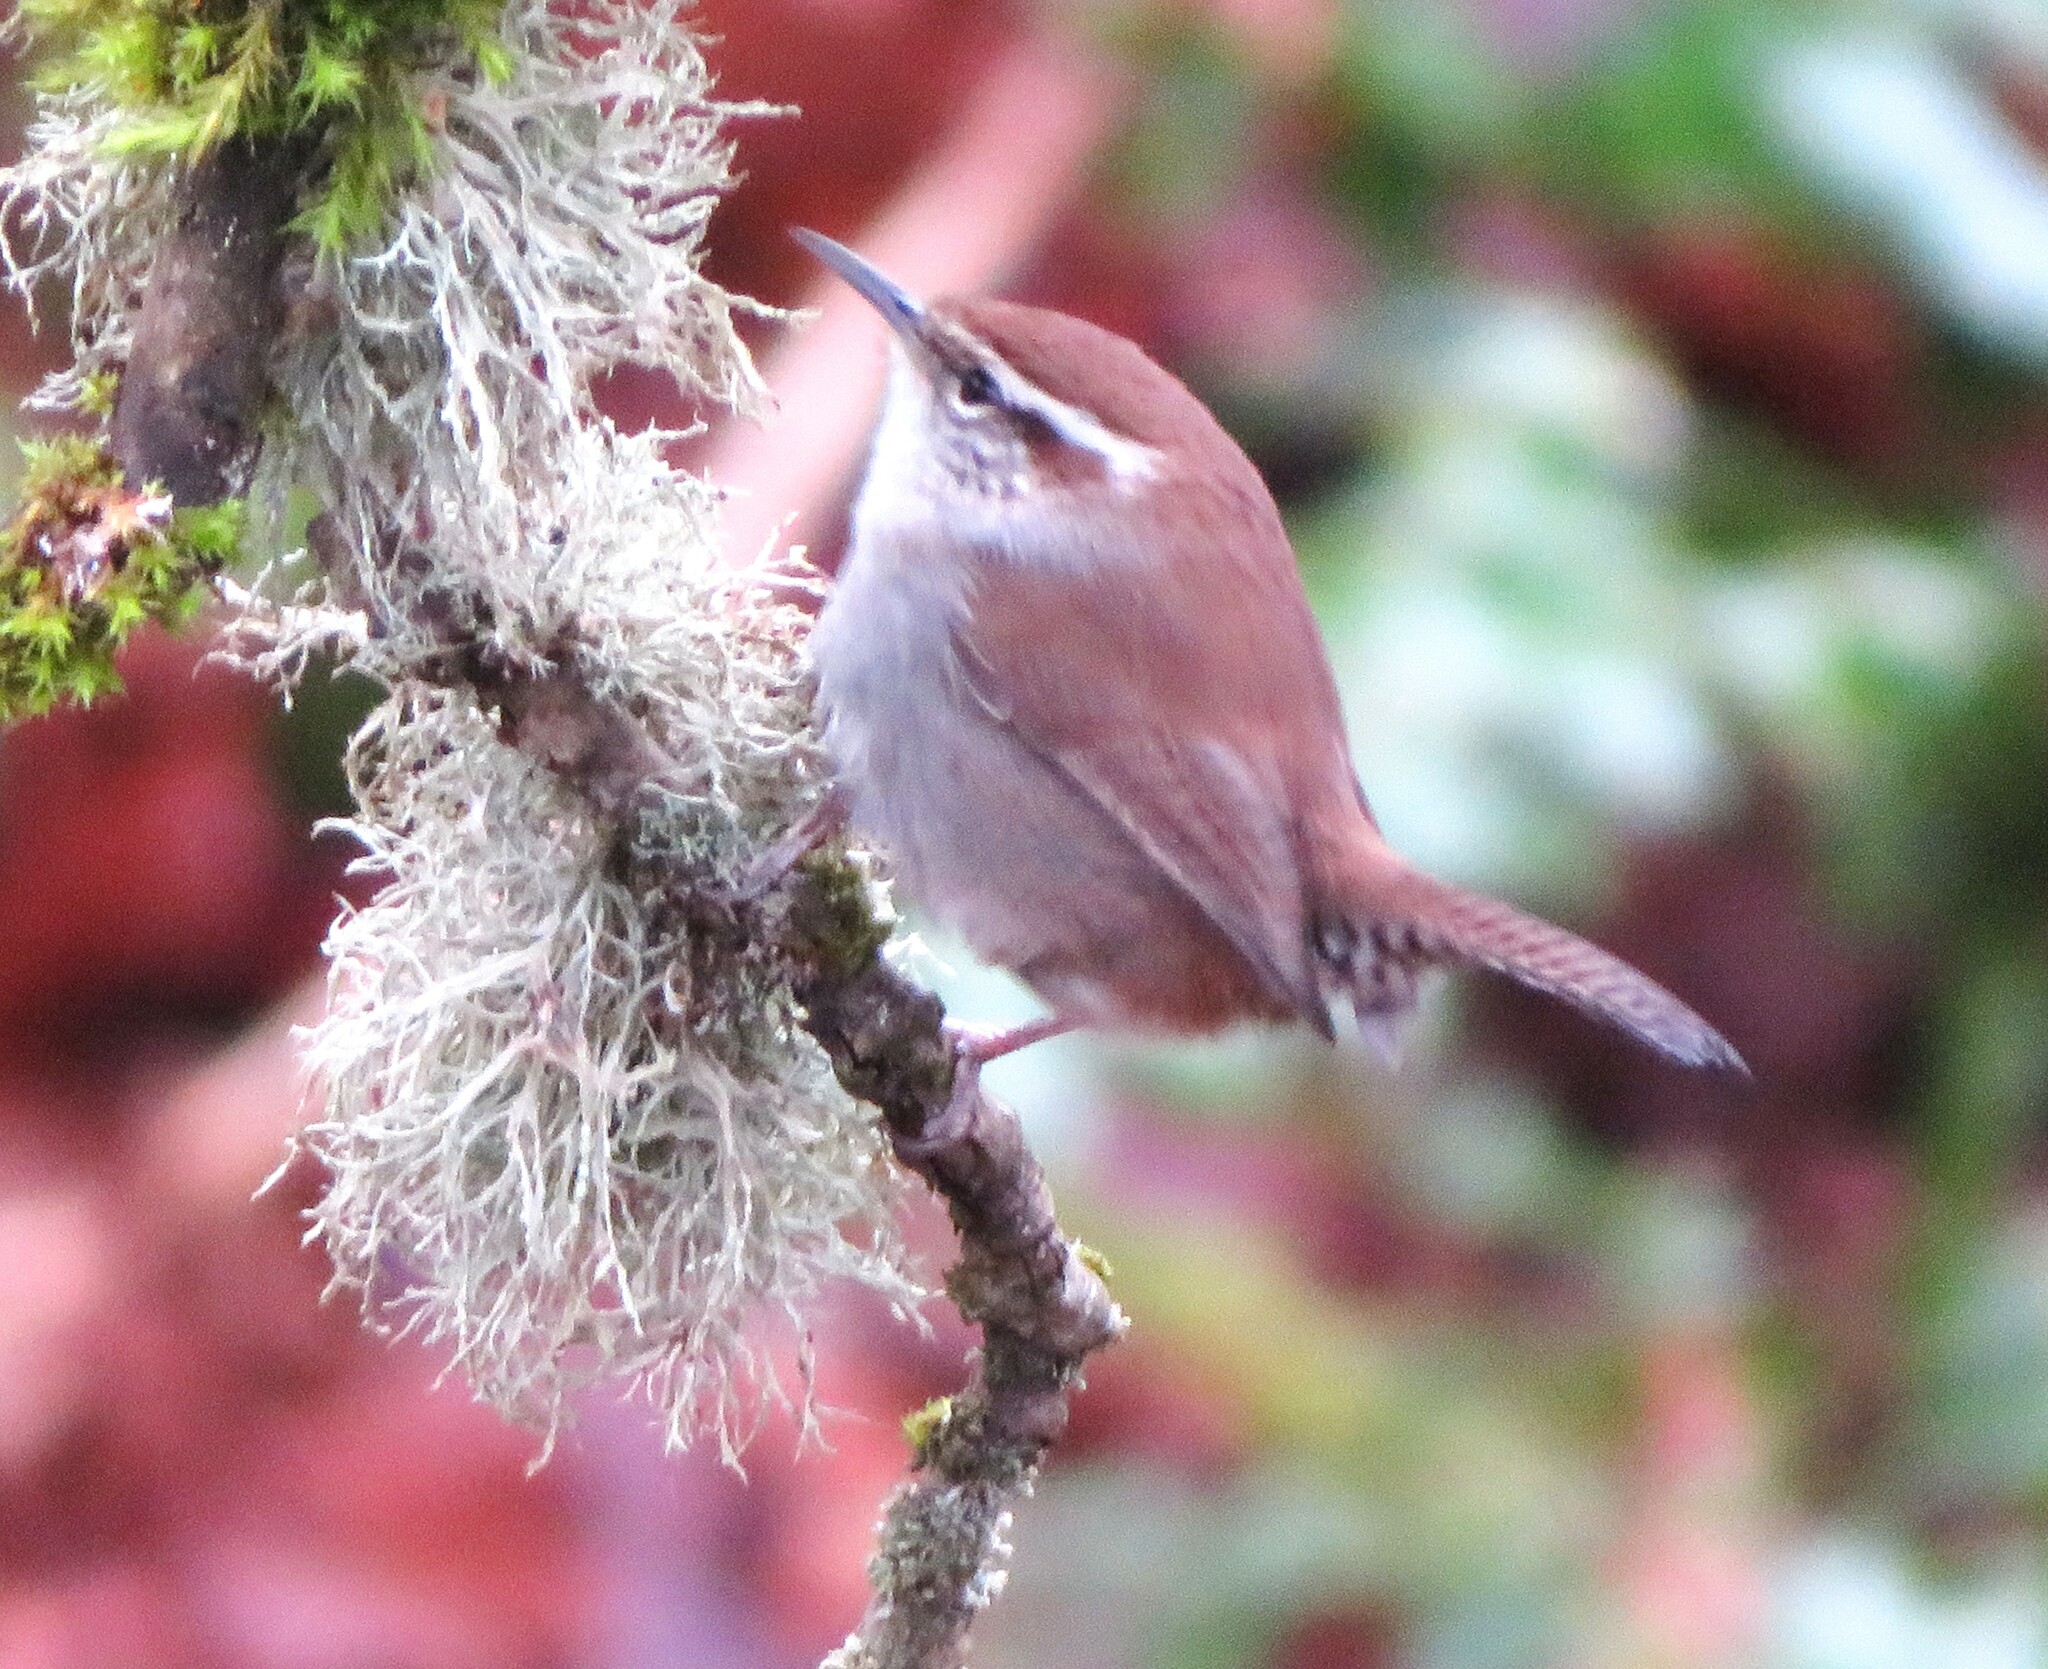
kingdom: Animalia
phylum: Chordata
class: Aves
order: Passeriformes
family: Troglodytidae
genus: Thryomanes
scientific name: Thryomanes bewickii
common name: Bewick's wren
